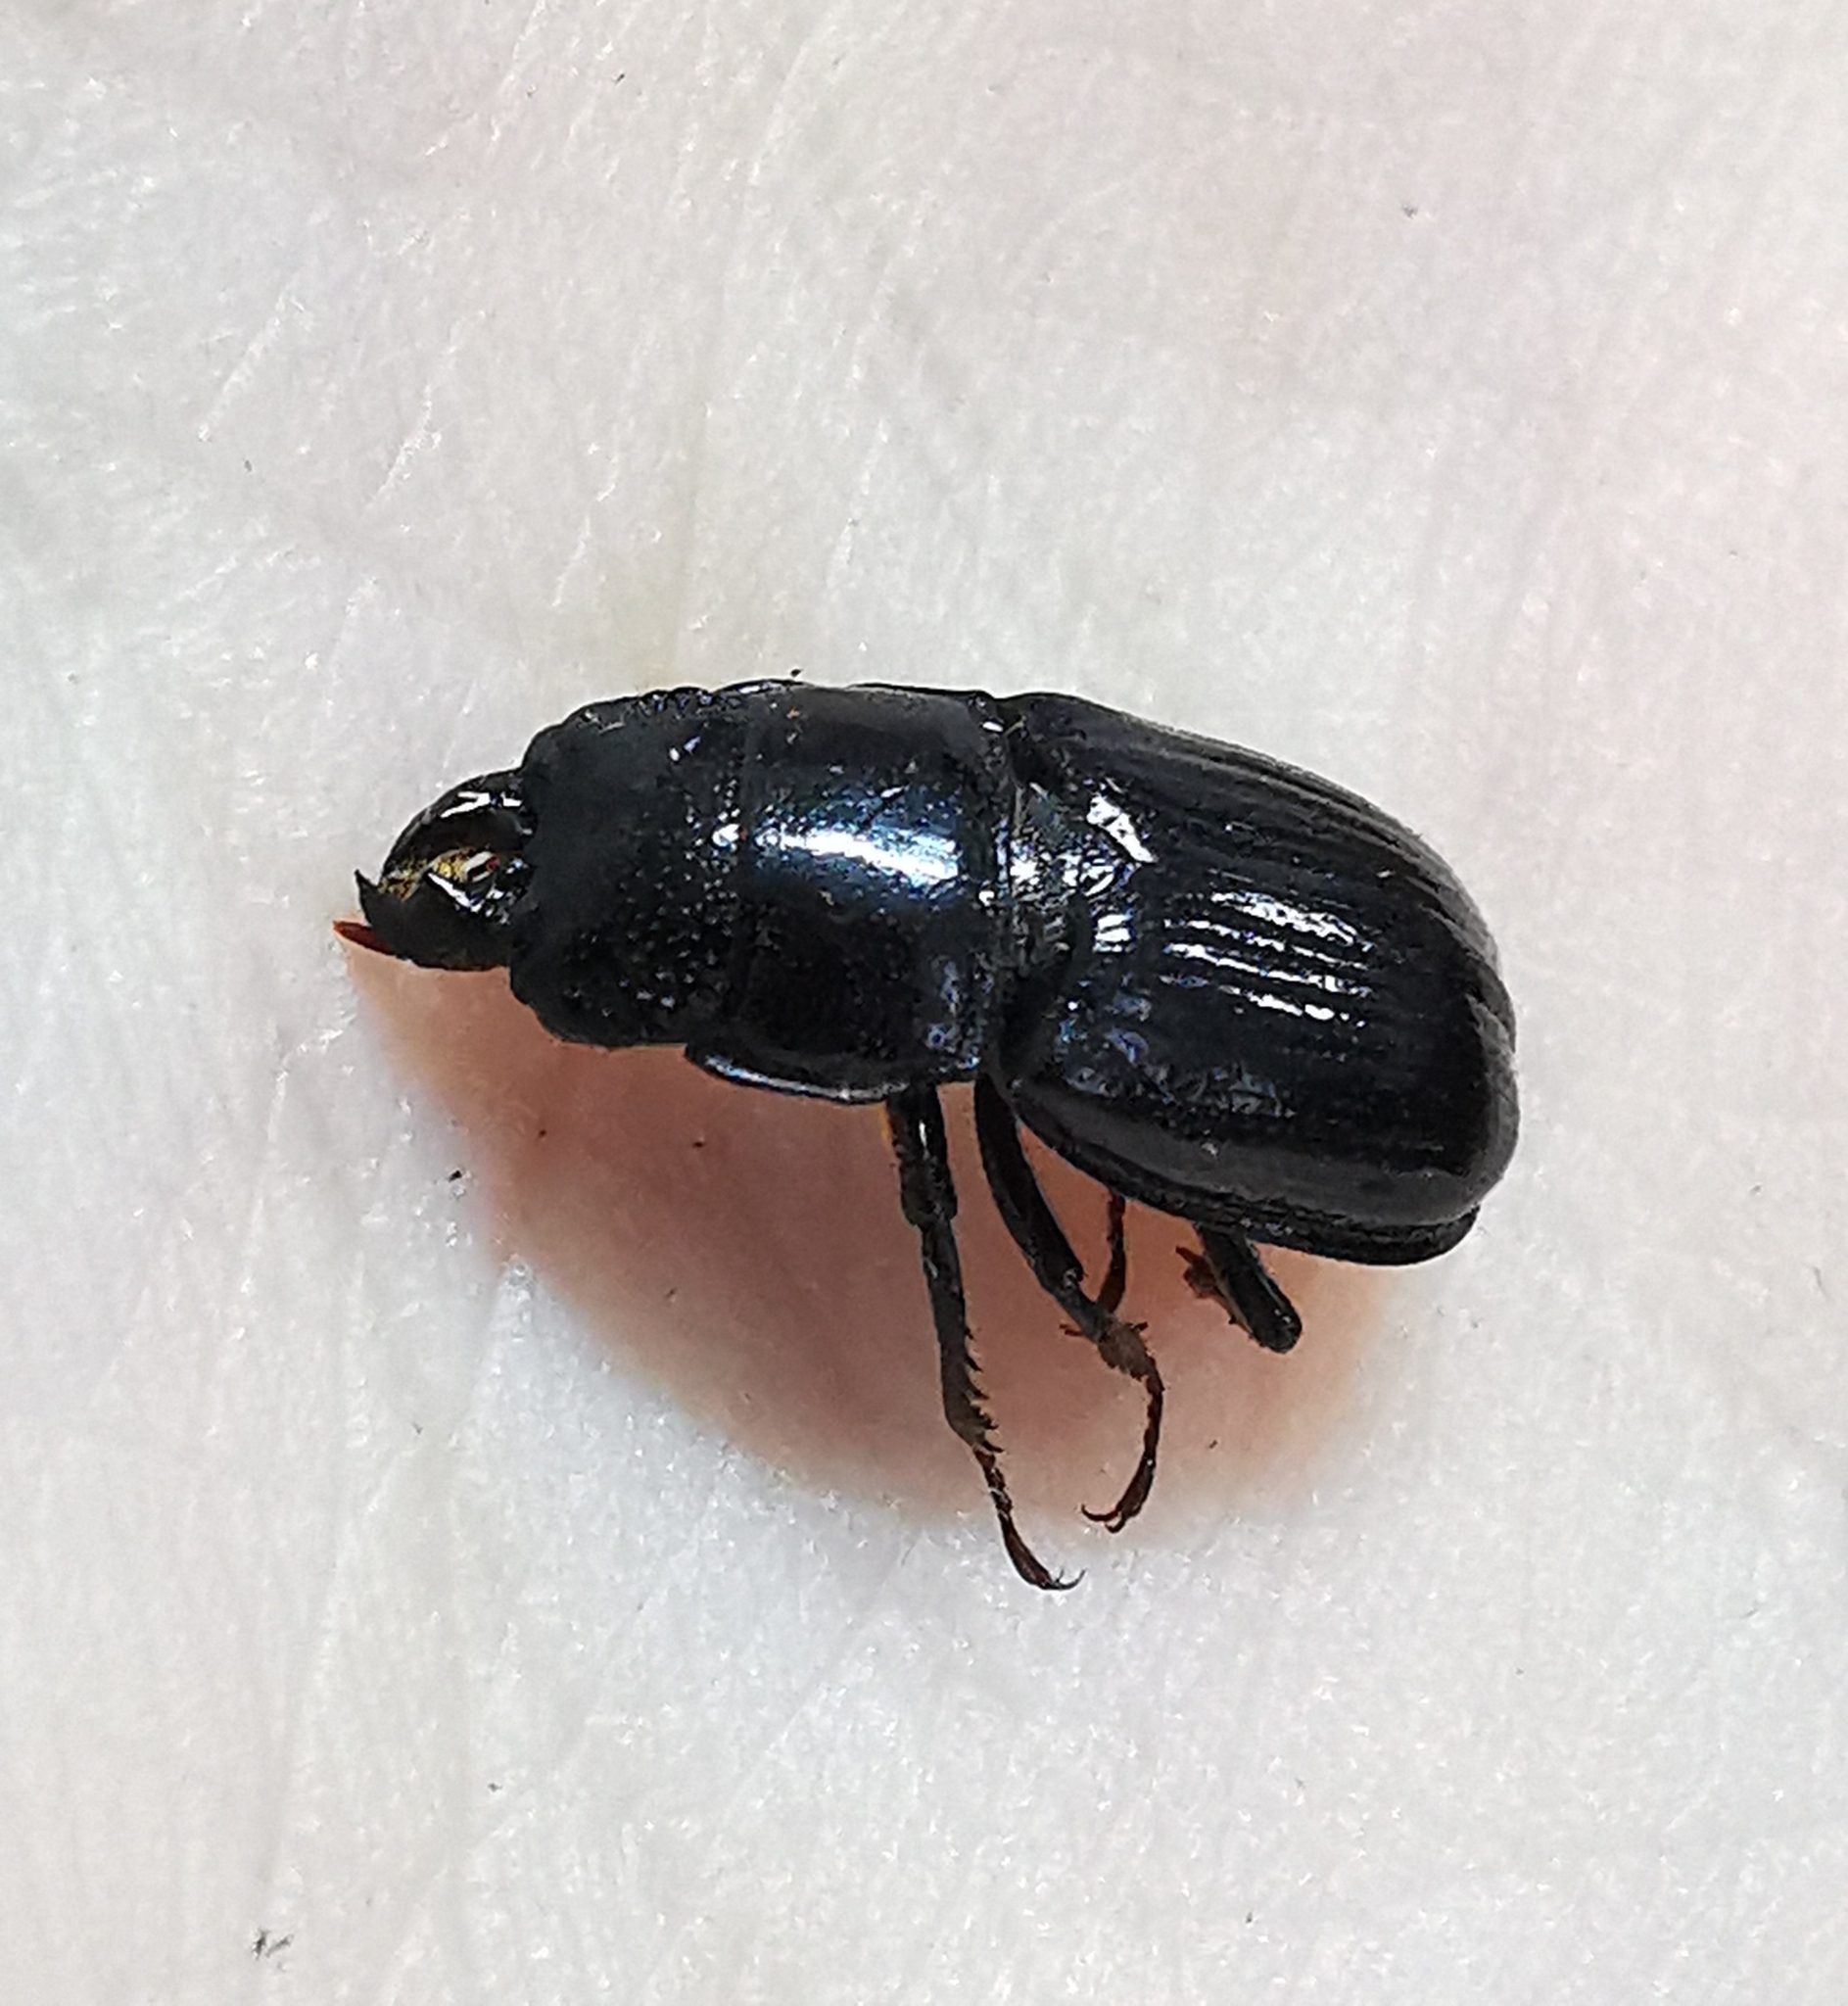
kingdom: Animalia
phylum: Arthropoda
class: Insecta
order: Coleoptera
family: Lucanidae
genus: Ceruchus
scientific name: Ceruchus chrysomelinus
